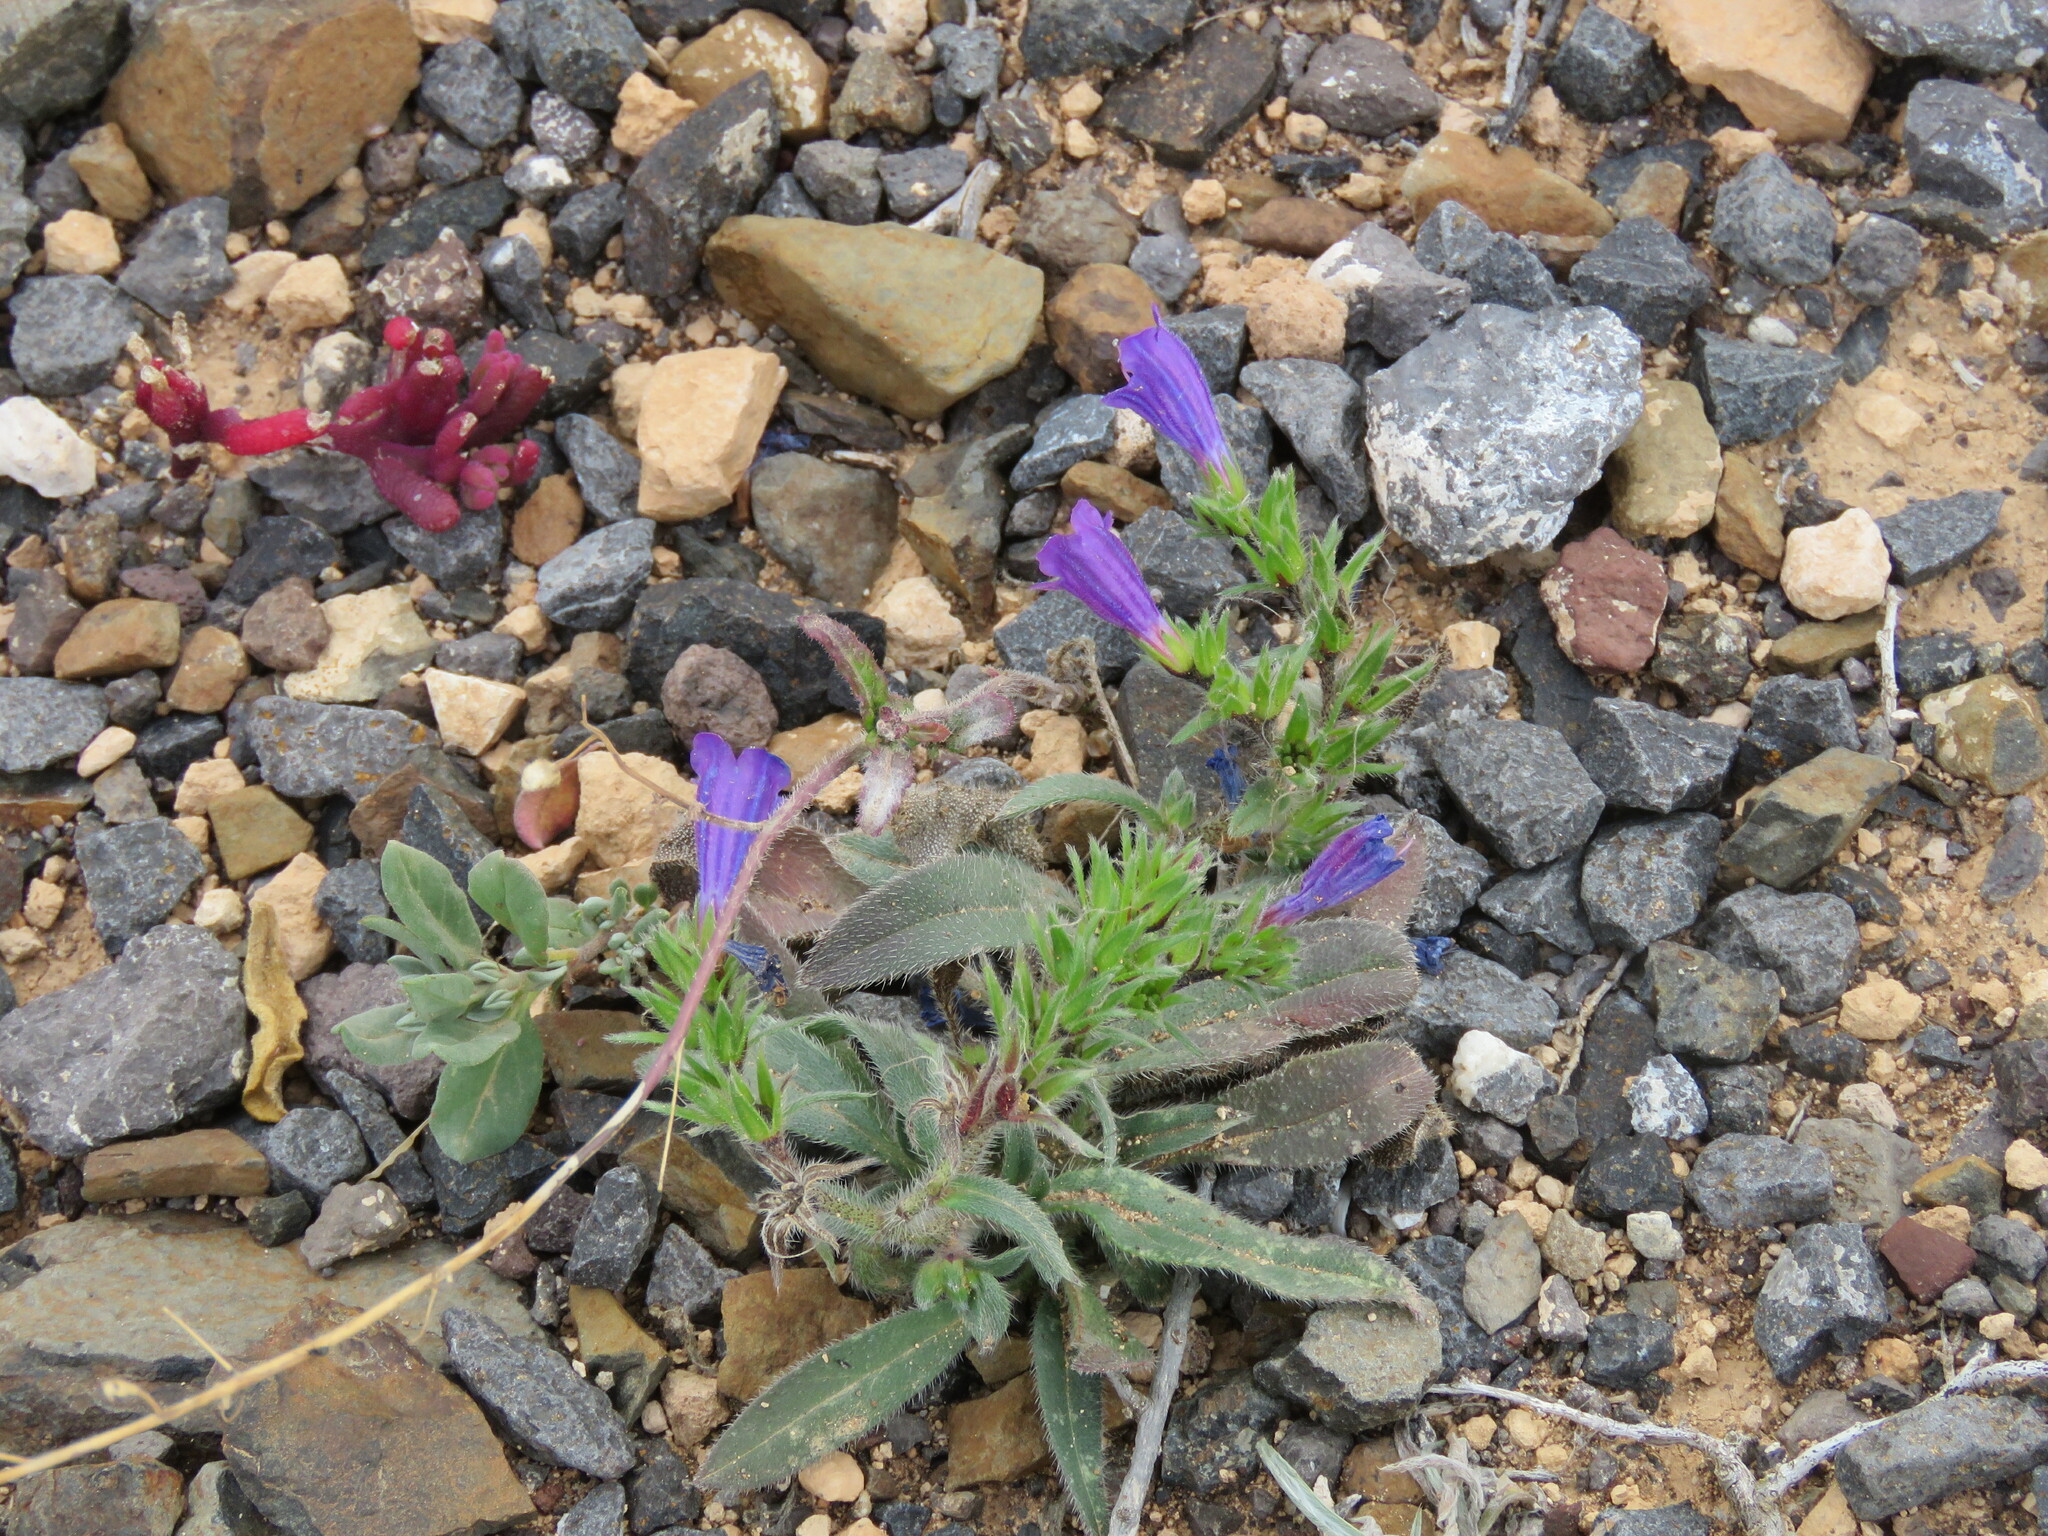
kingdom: Plantae
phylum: Tracheophyta
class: Magnoliopsida
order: Boraginales
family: Boraginaceae
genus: Echium
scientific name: Echium bonnetii
